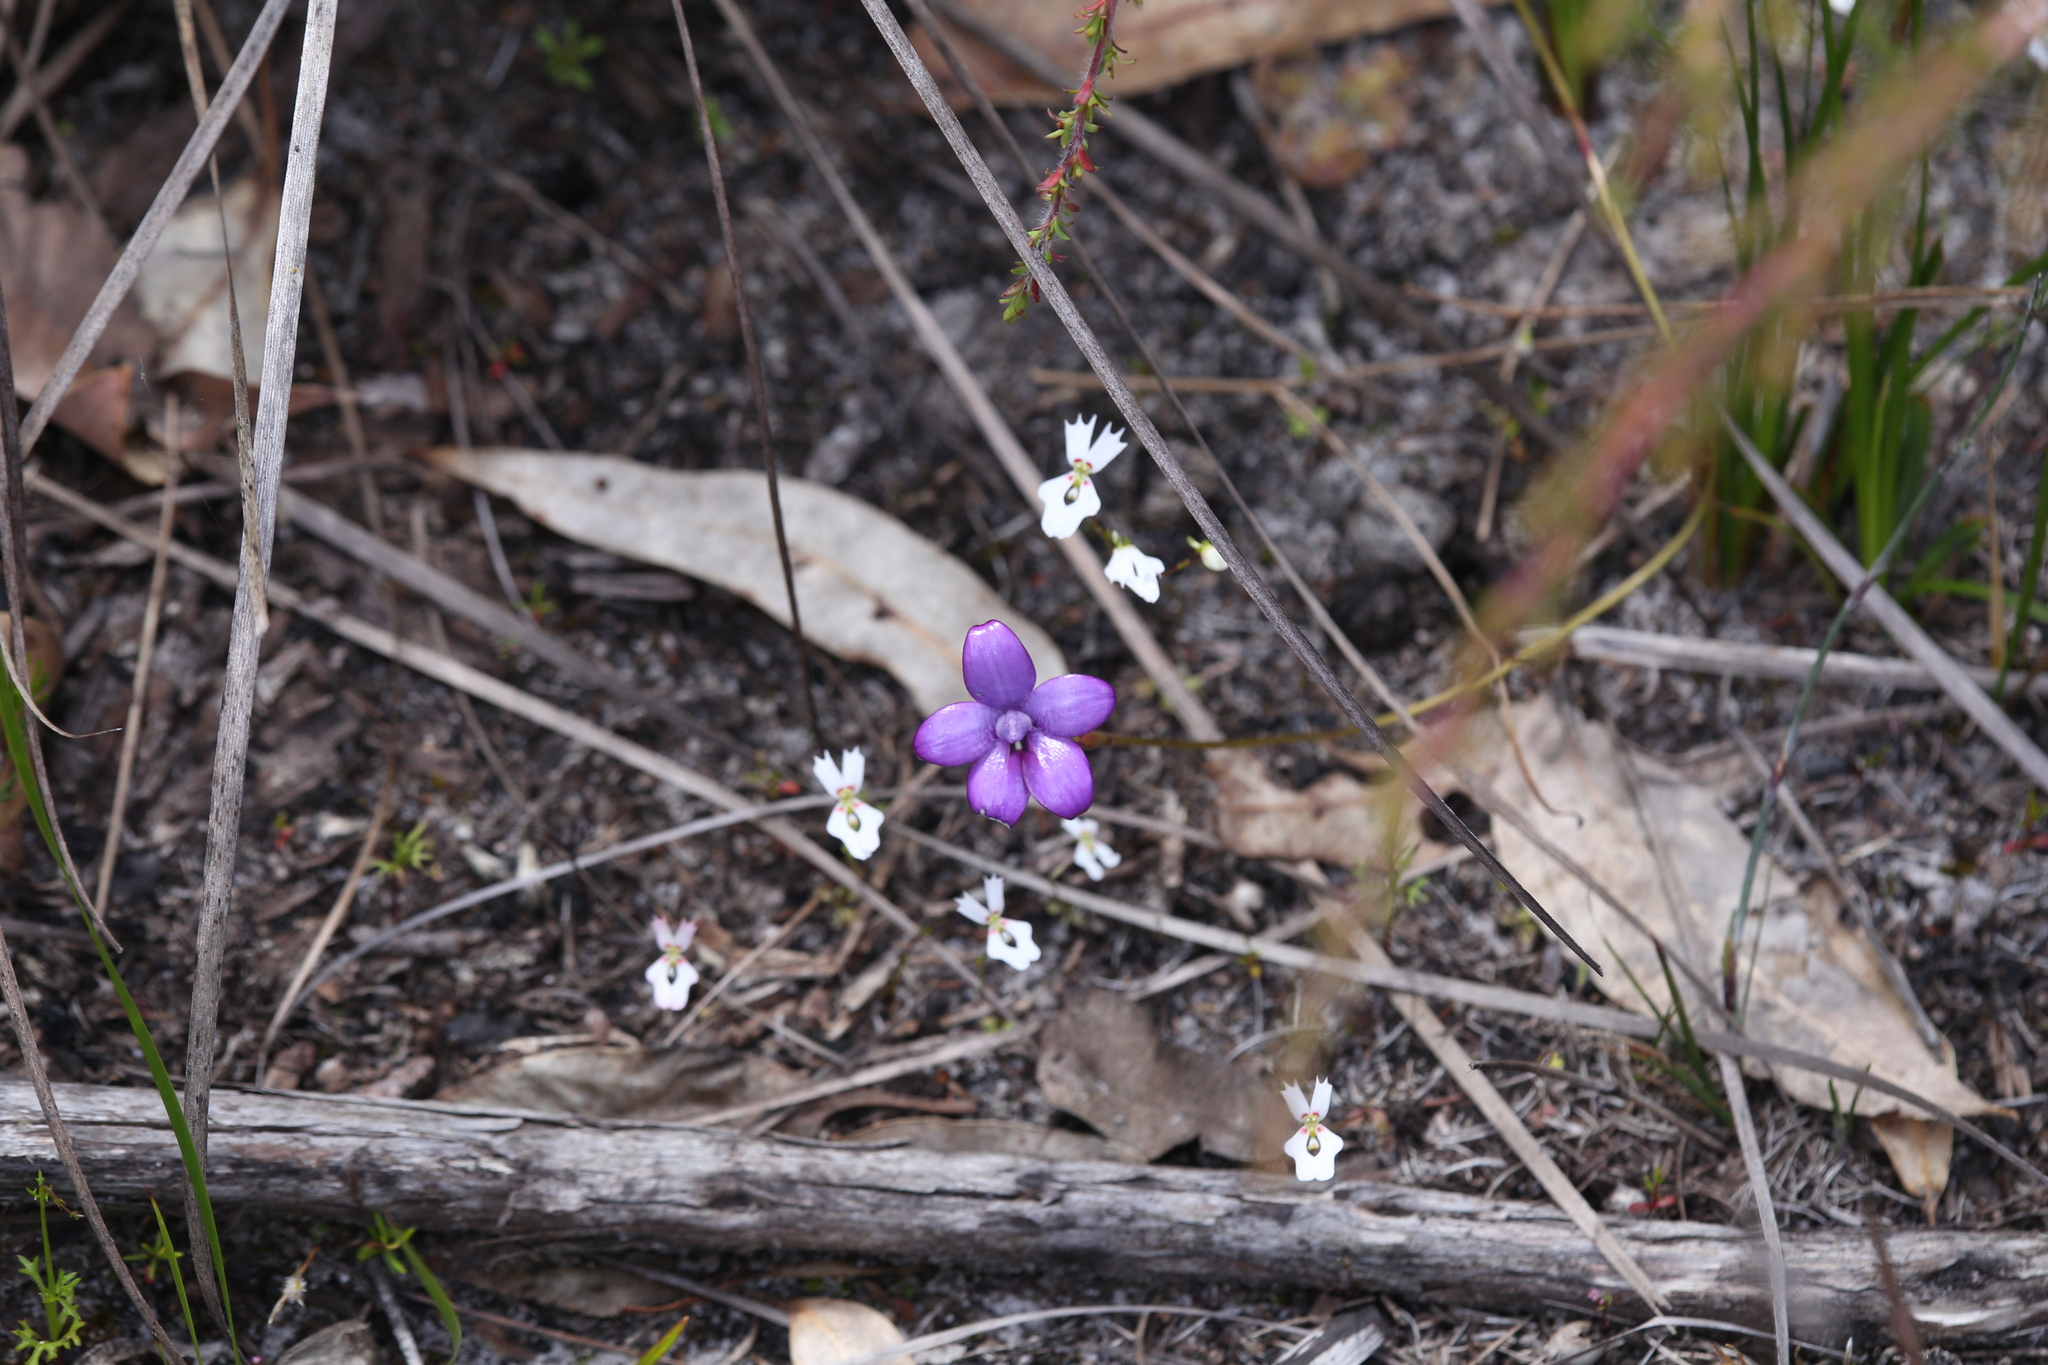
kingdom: Plantae
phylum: Tracheophyta
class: Liliopsida
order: Asparagales
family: Orchidaceae
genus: Caladenia
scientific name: Caladenia brunonis
